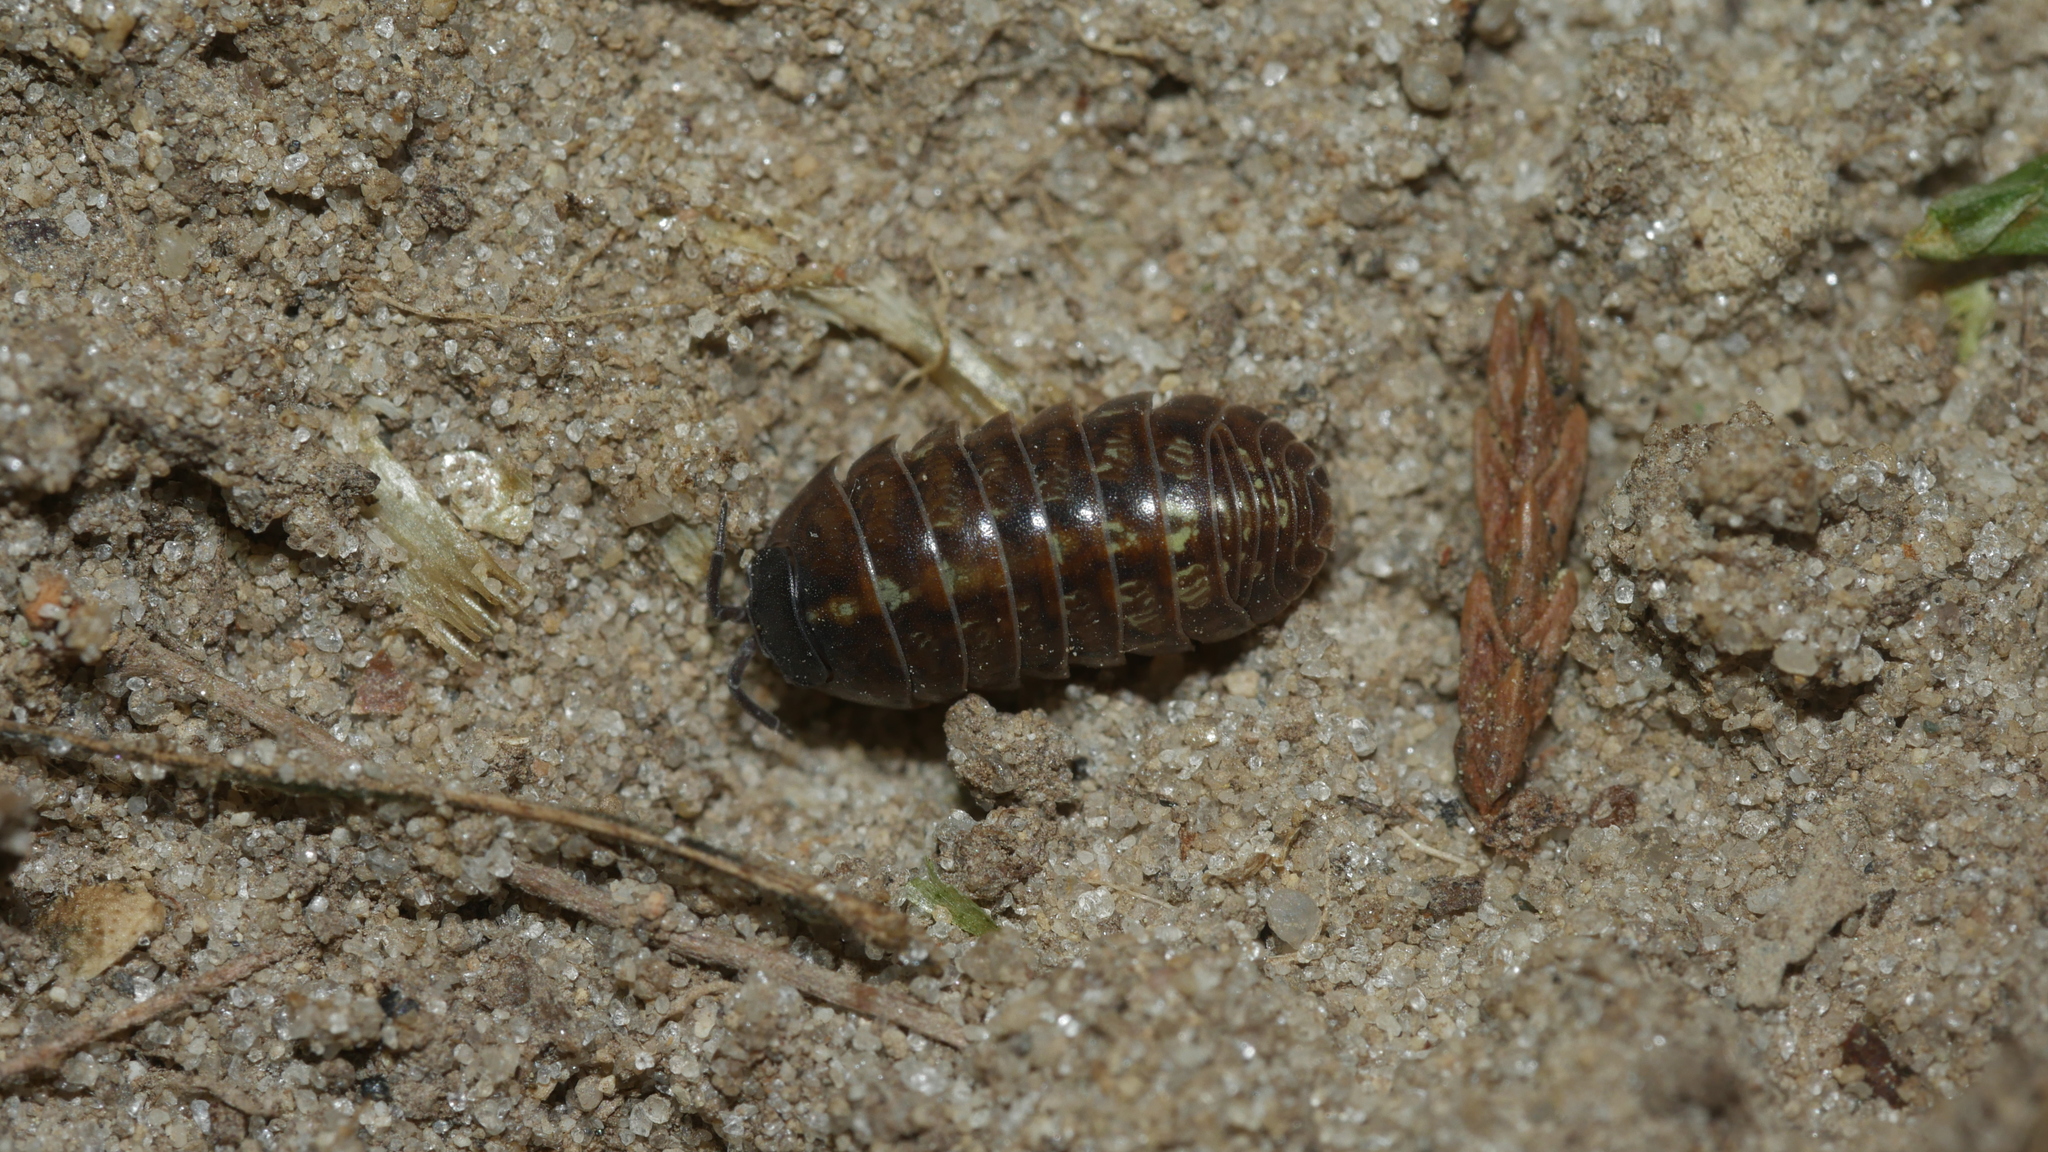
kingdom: Animalia
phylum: Arthropoda
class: Malacostraca
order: Isopoda
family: Armadillidiidae
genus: Armadillidium
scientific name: Armadillidium vulgare
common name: Common pill woodlouse
